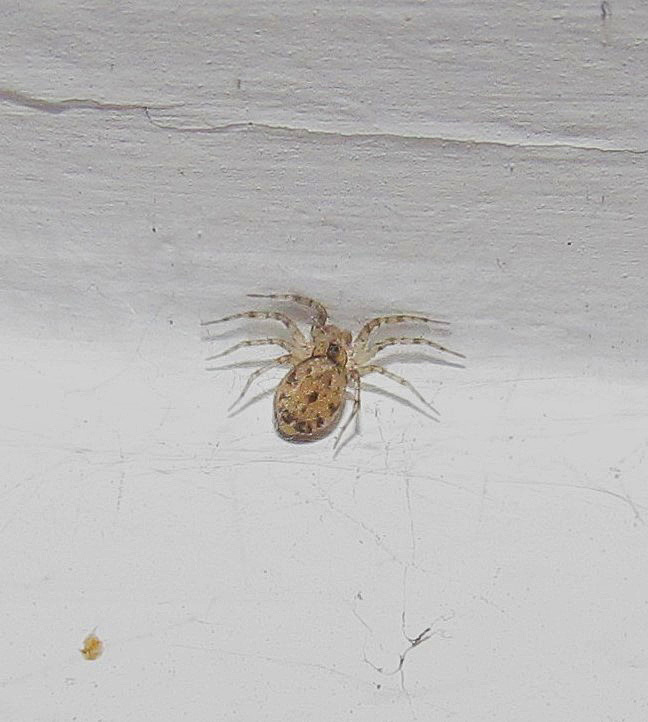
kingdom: Animalia
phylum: Arthropoda
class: Arachnida
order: Araneae
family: Oecobiidae
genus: Oecobius
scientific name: Oecobius navus
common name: Flatmesh weaver
